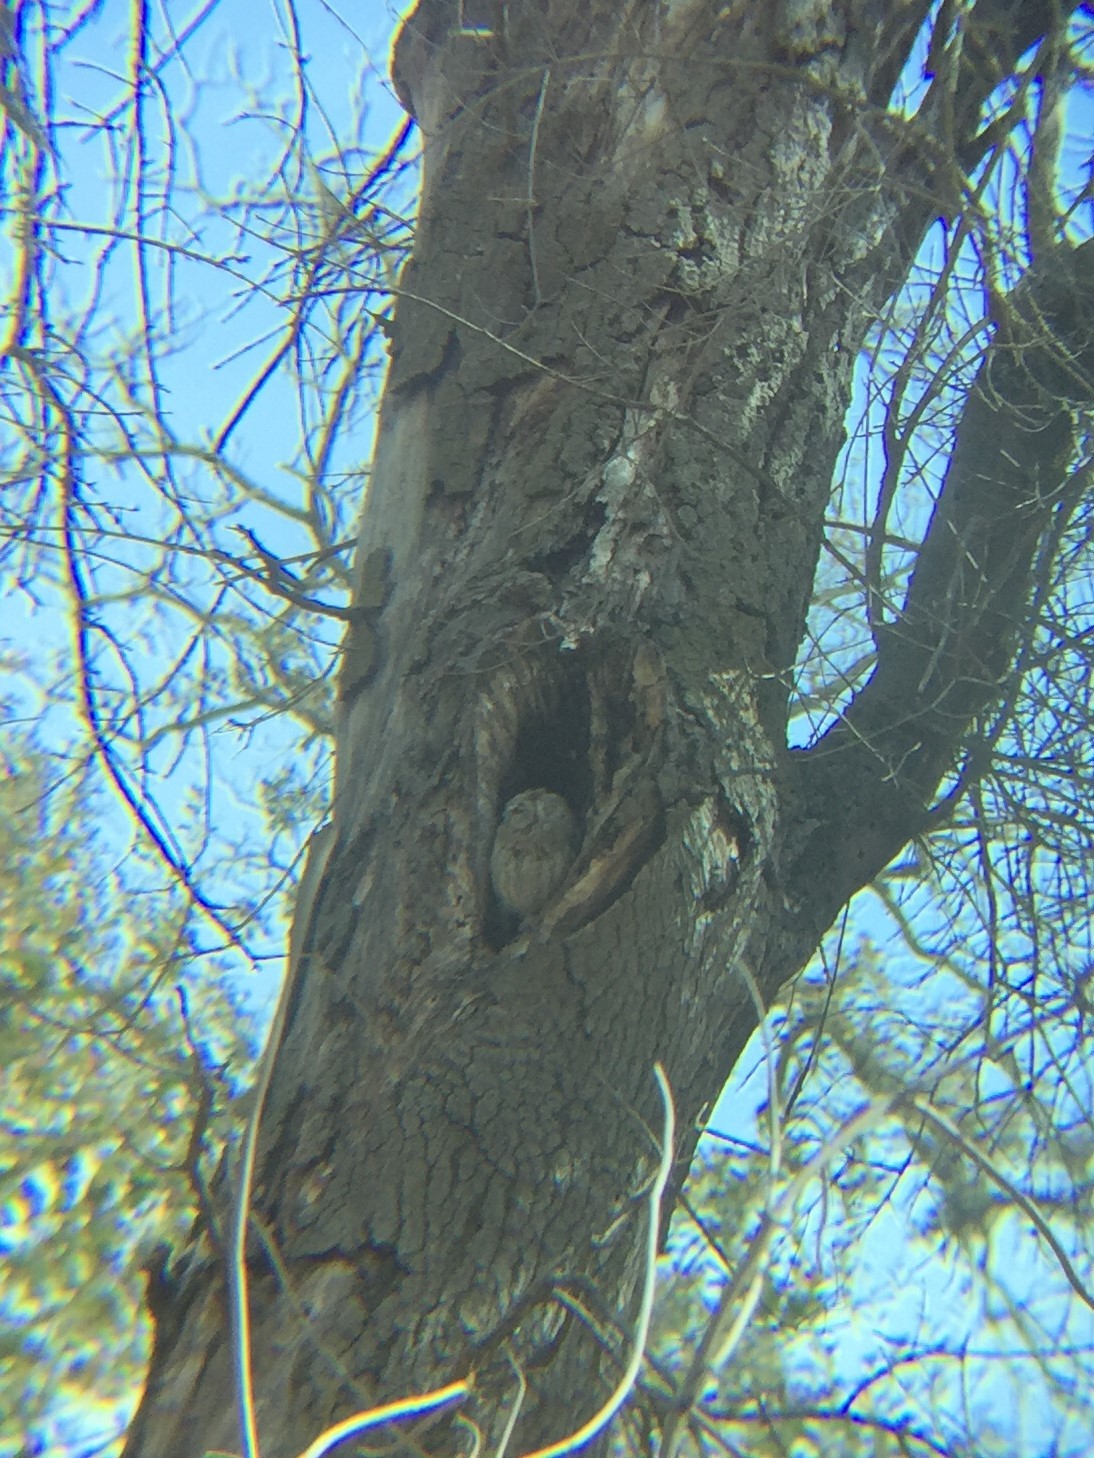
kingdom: Animalia
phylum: Chordata
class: Aves
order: Strigiformes
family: Strigidae
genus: Megascops
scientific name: Megascops kennicottii
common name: Western screech-owl
